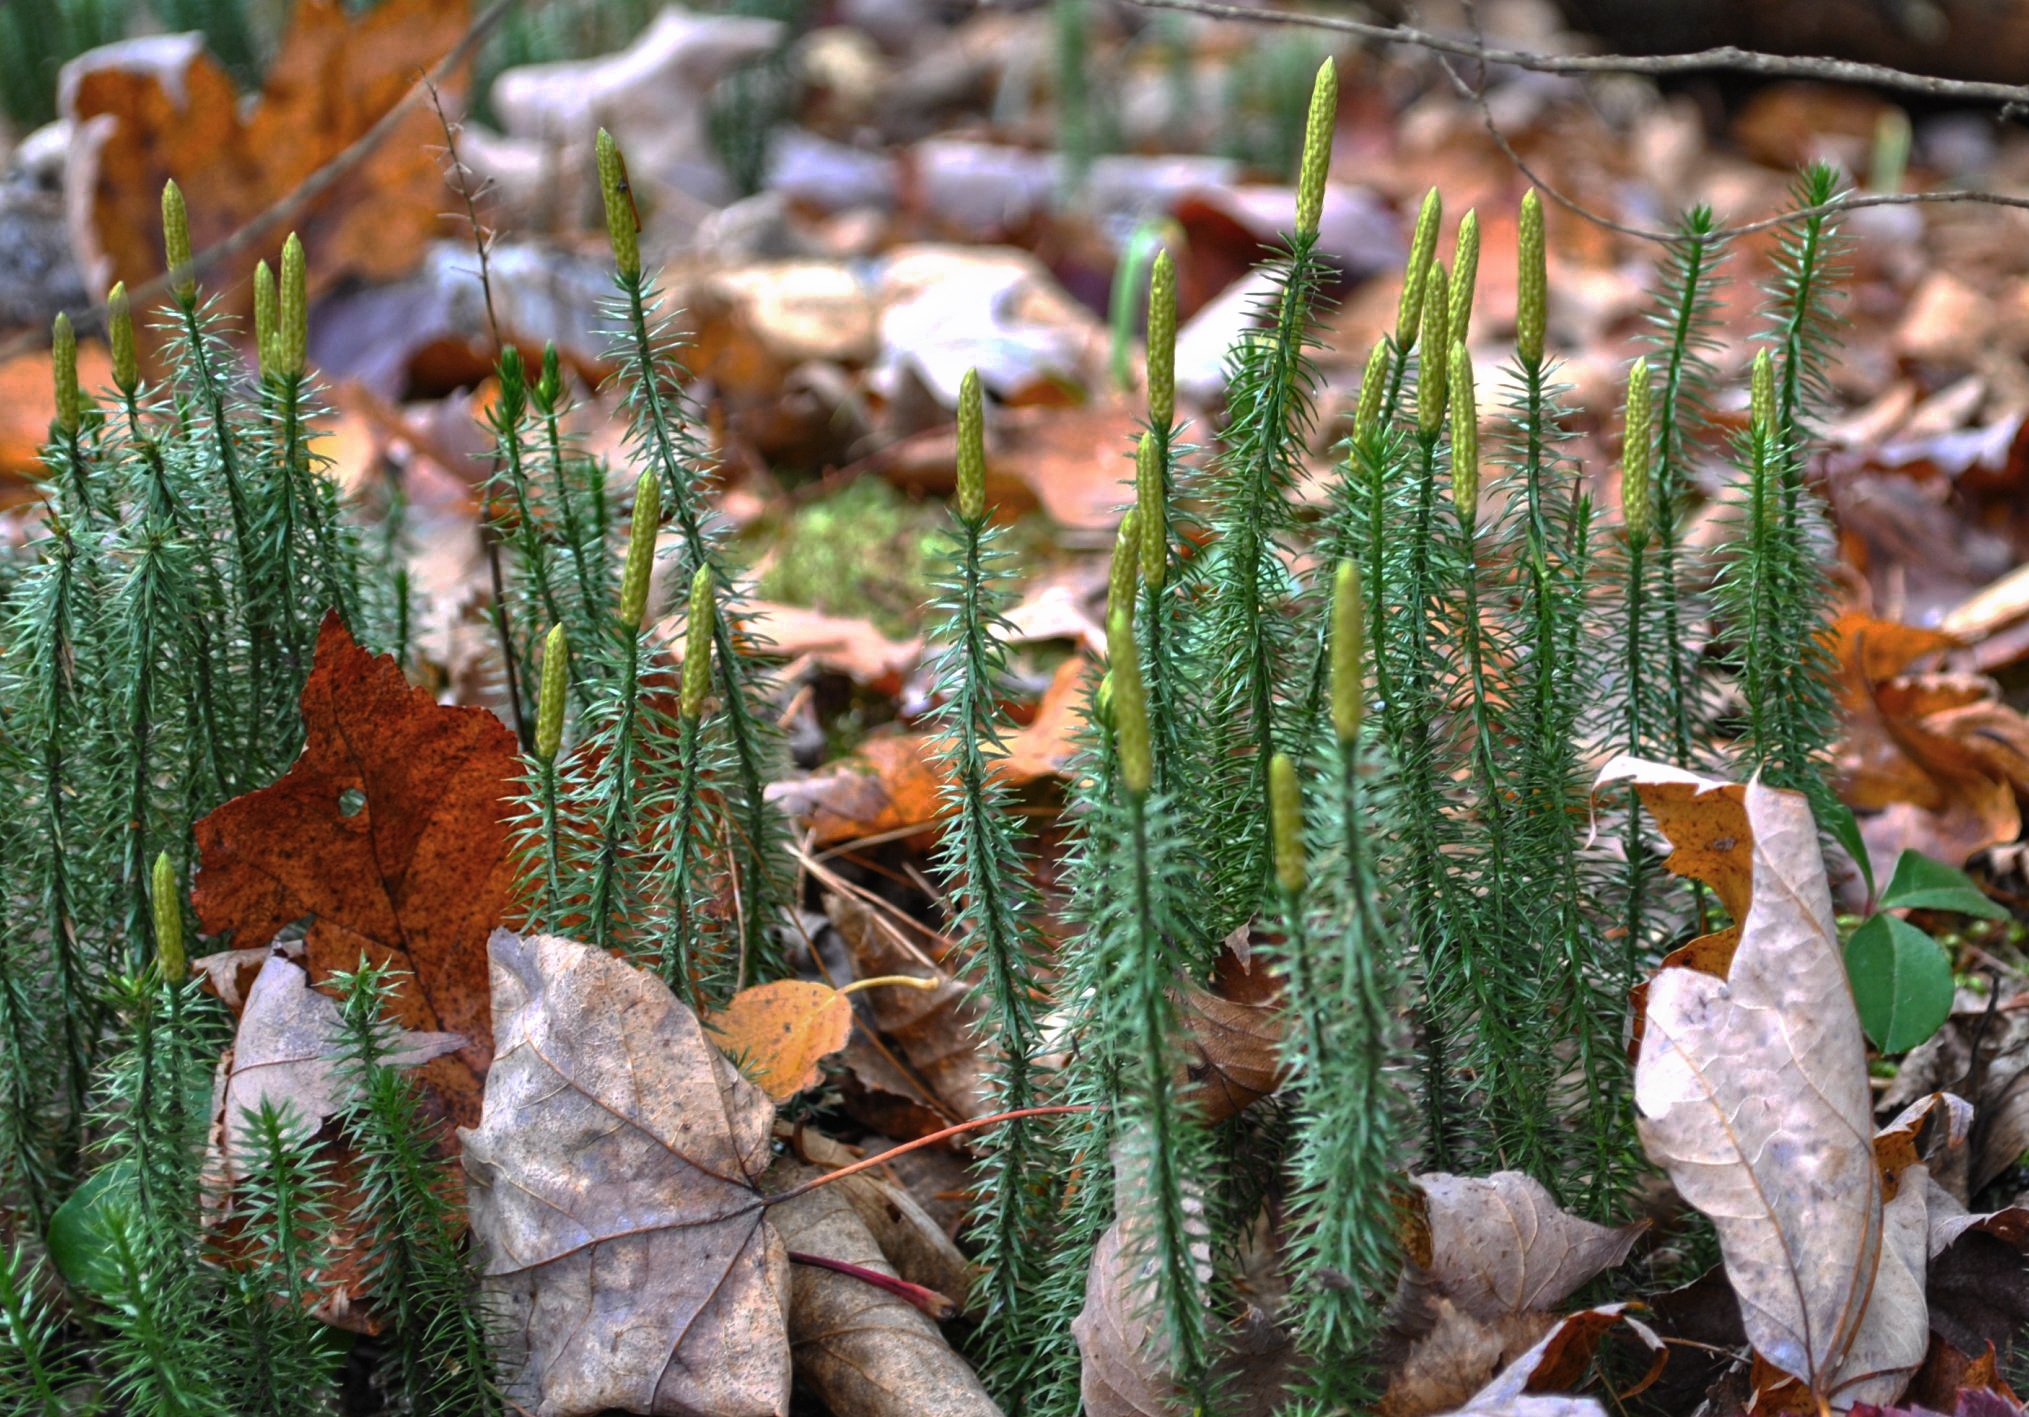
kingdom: Plantae
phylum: Tracheophyta
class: Lycopodiopsida
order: Lycopodiales
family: Lycopodiaceae
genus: Spinulum
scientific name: Spinulum annotinum
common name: Interrupted club-moss
